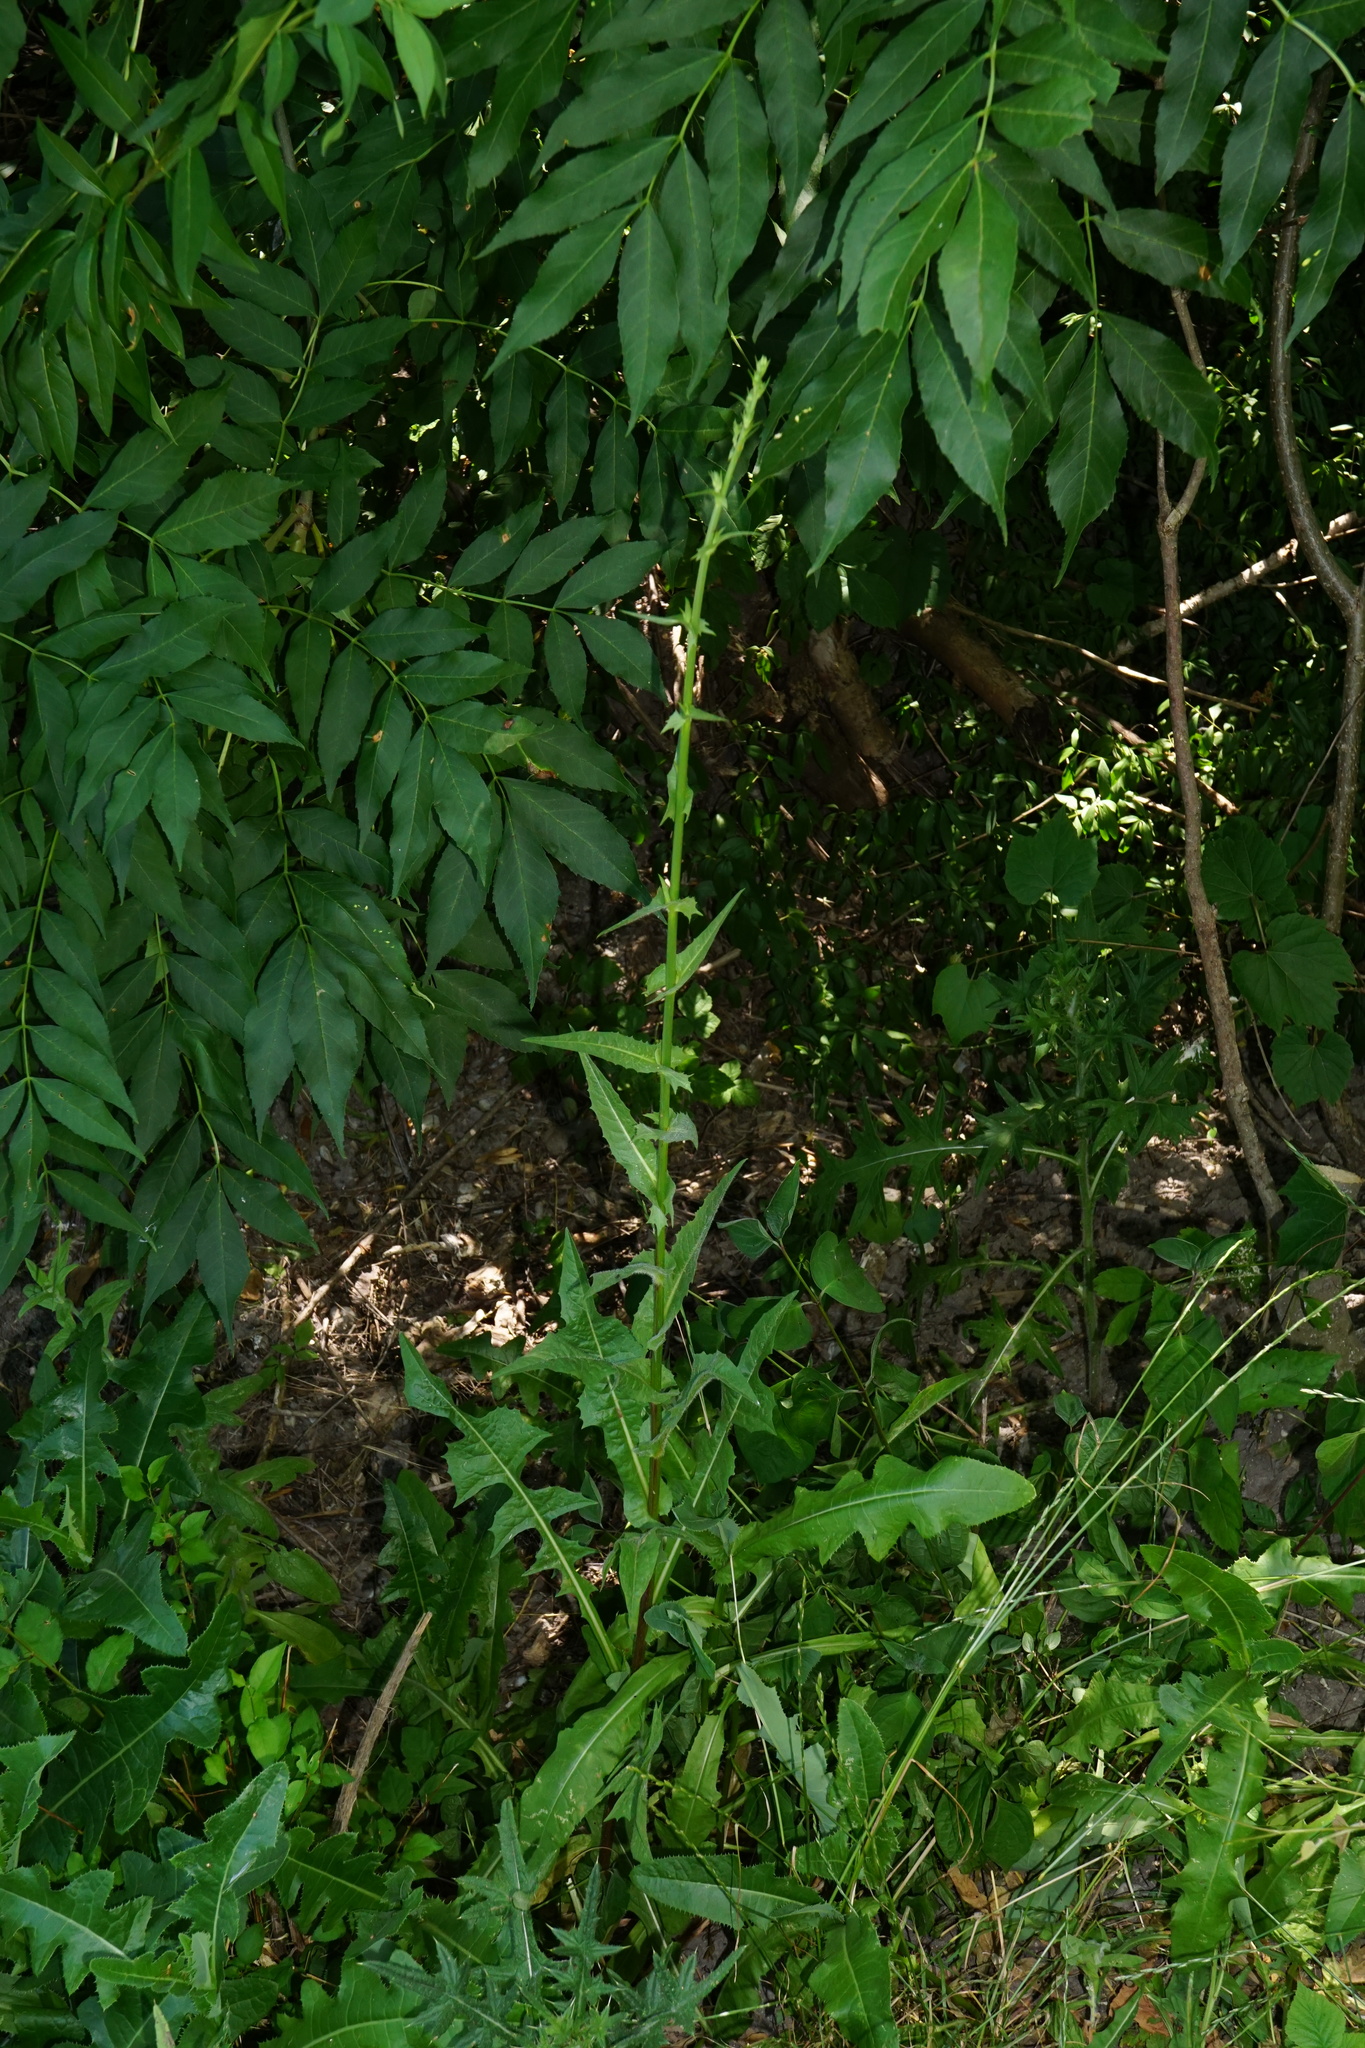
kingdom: Plantae
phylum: Tracheophyta
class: Magnoliopsida
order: Asterales
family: Asteraceae
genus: Cichorium
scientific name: Cichorium intybus
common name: Chicory
